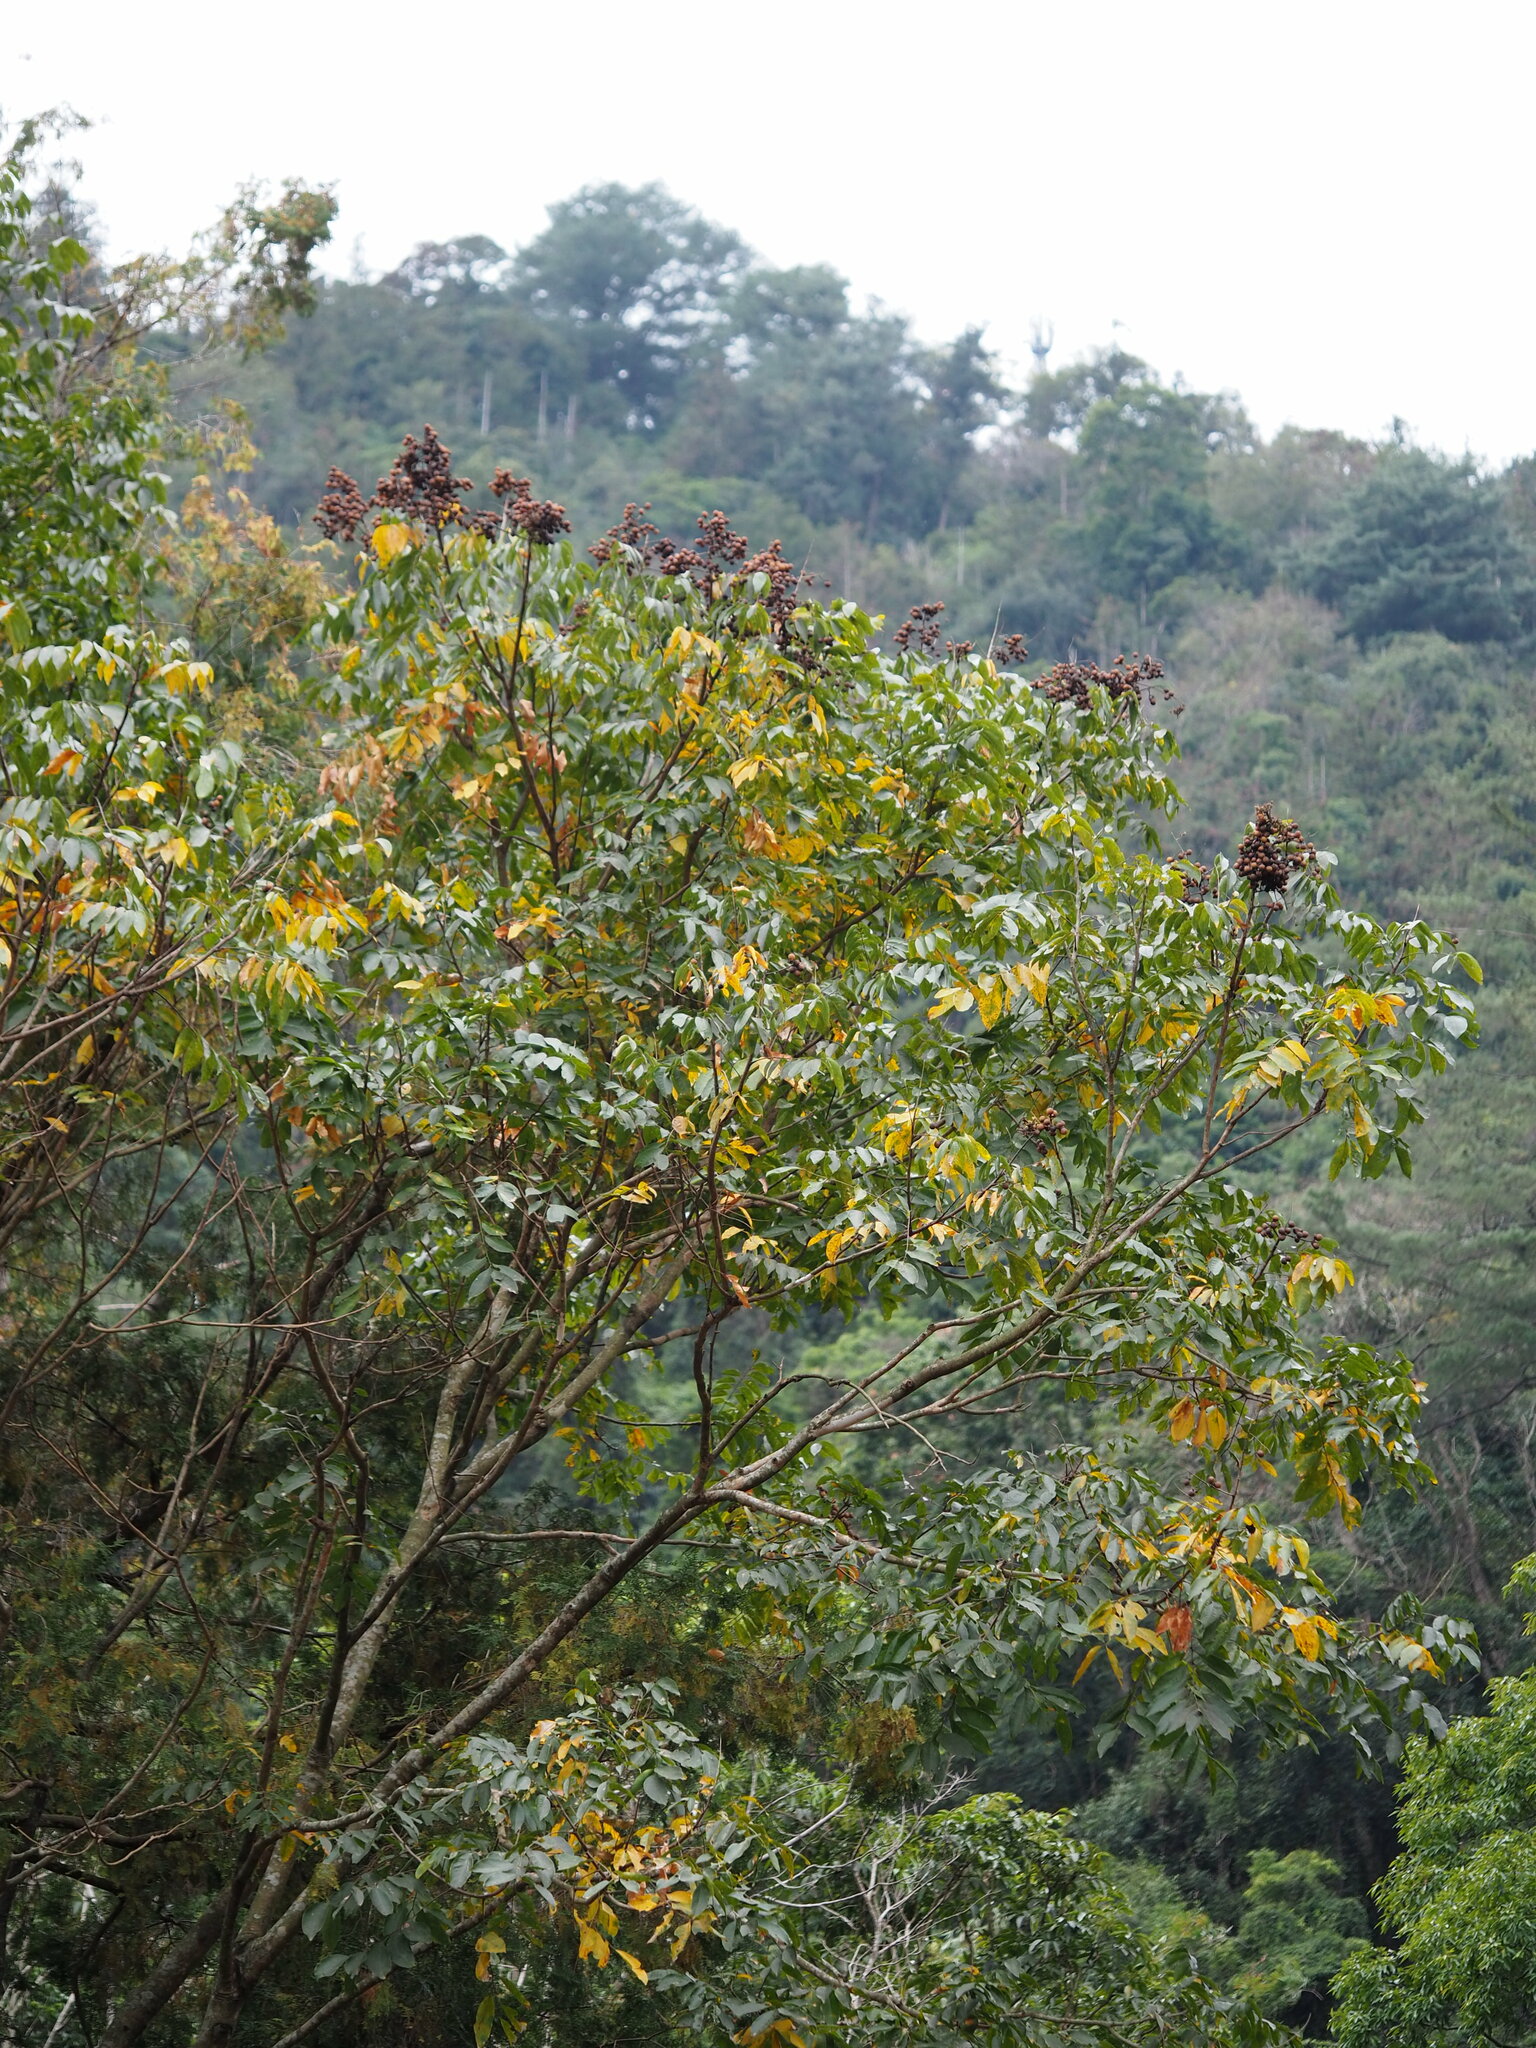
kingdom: Plantae
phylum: Tracheophyta
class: Magnoliopsida
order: Sapindales
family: Sapindaceae
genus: Sapindus
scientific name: Sapindus mukorossi
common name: Chinese soapberry
